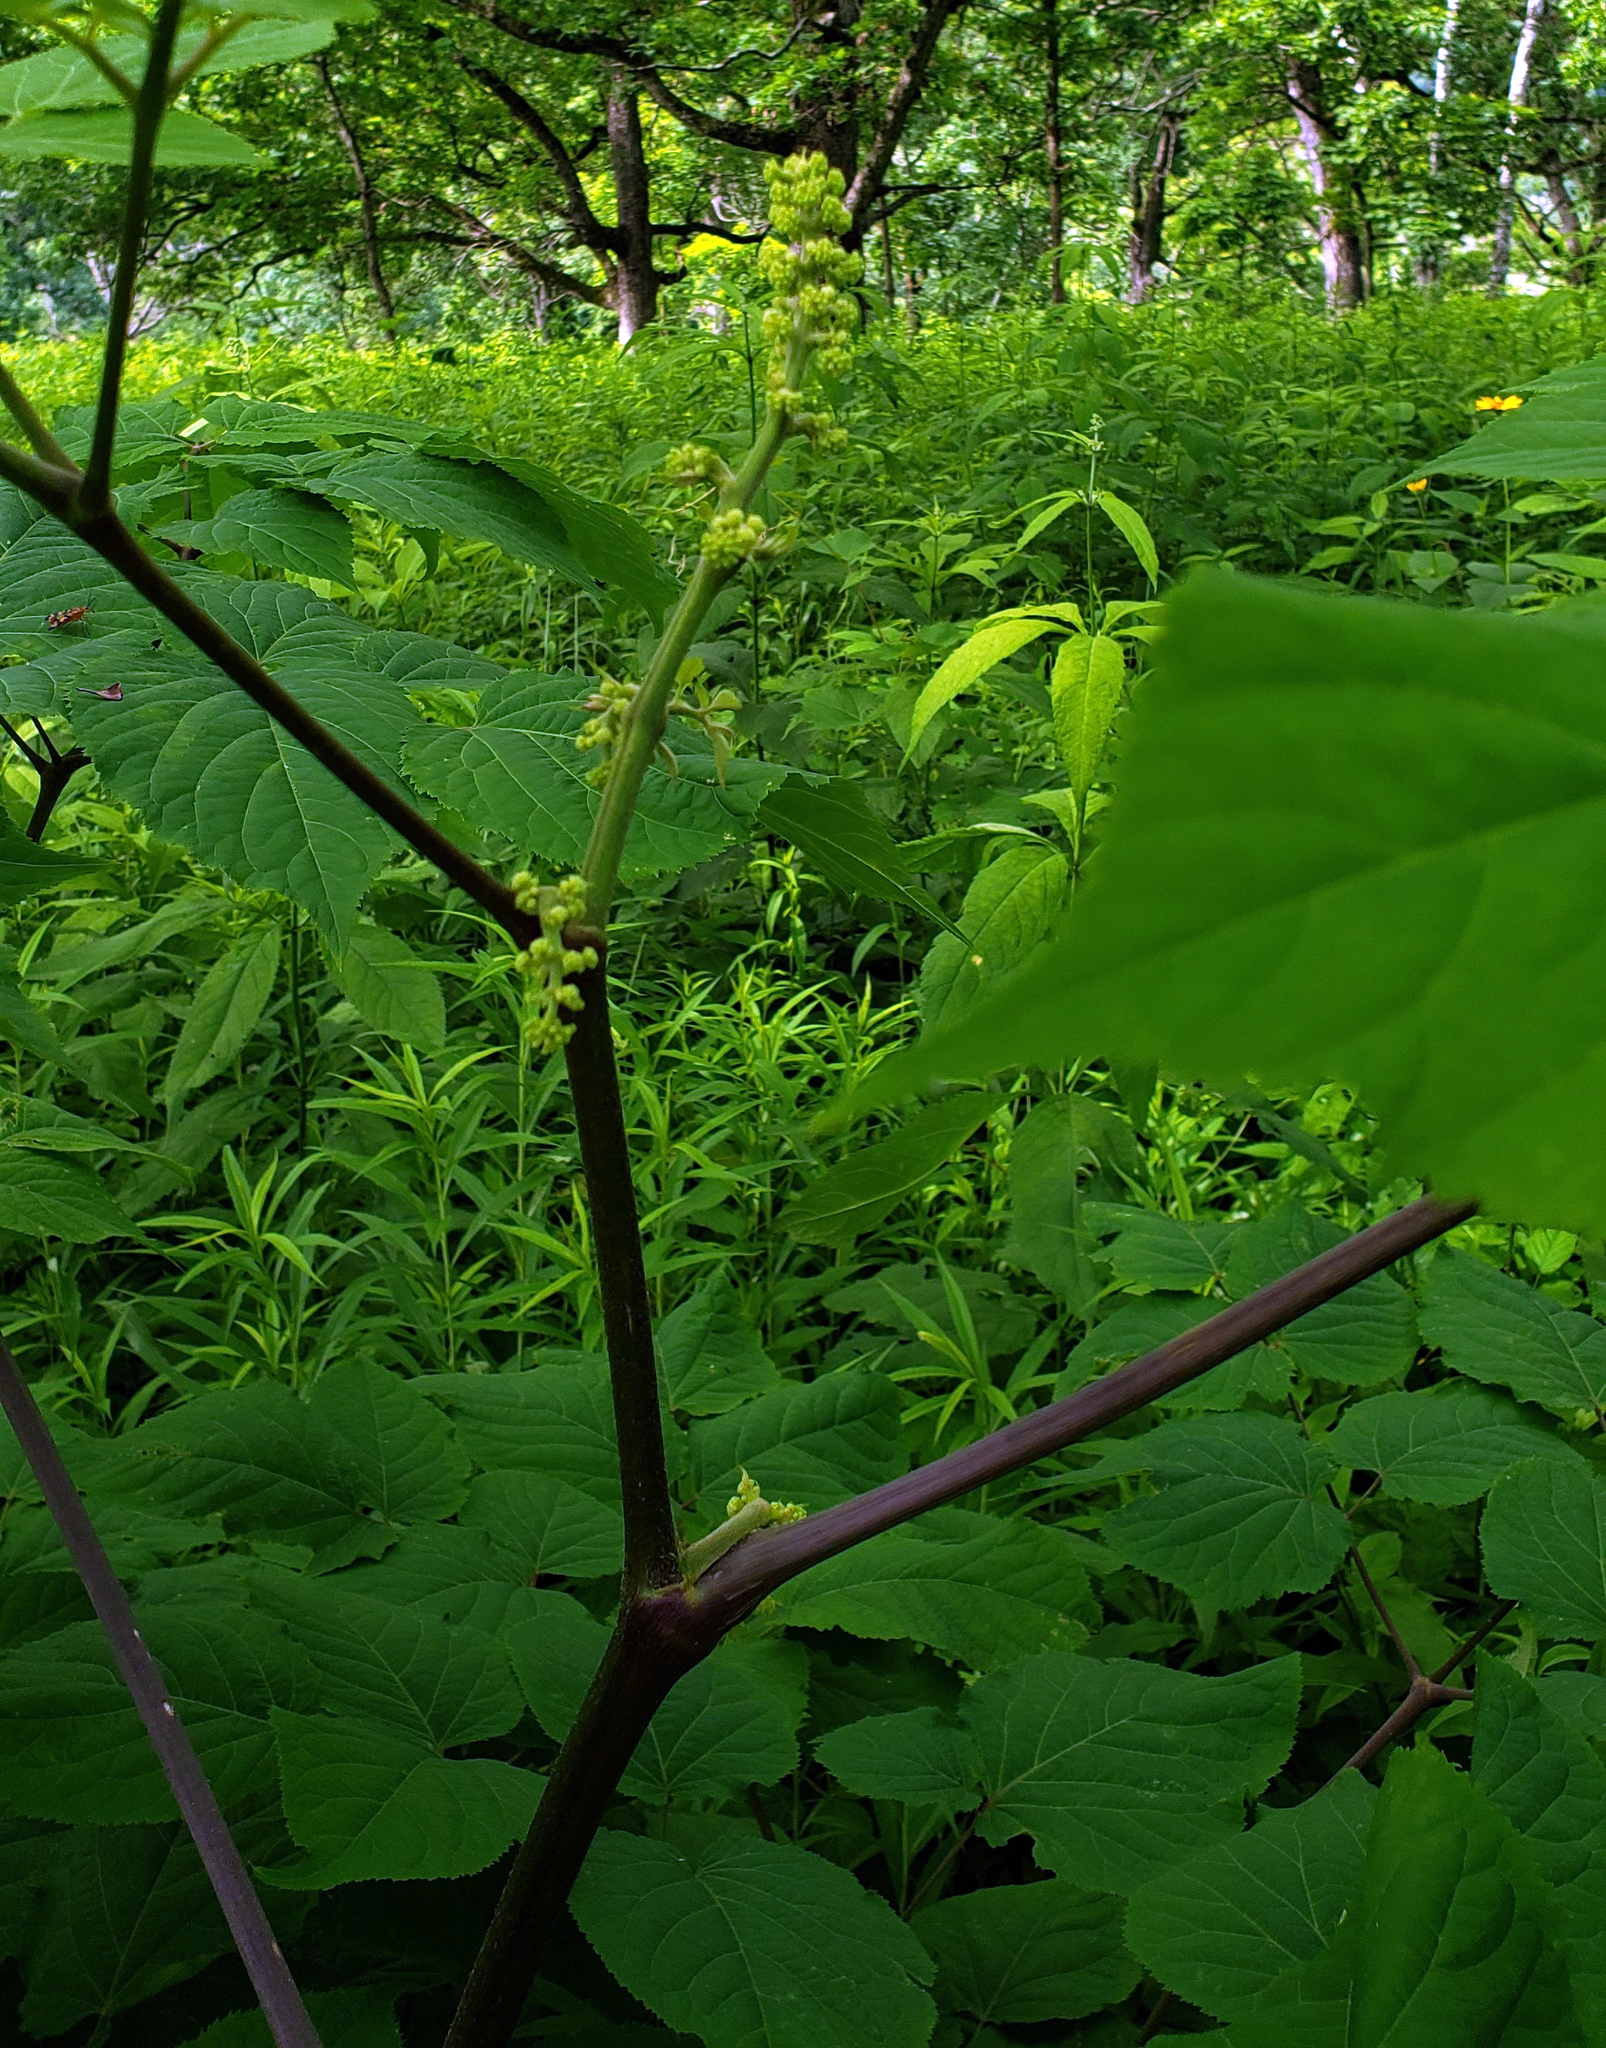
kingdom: Plantae
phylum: Tracheophyta
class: Magnoliopsida
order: Apiales
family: Araliaceae
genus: Aralia
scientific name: Aralia racemosa
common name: American-spikenard
